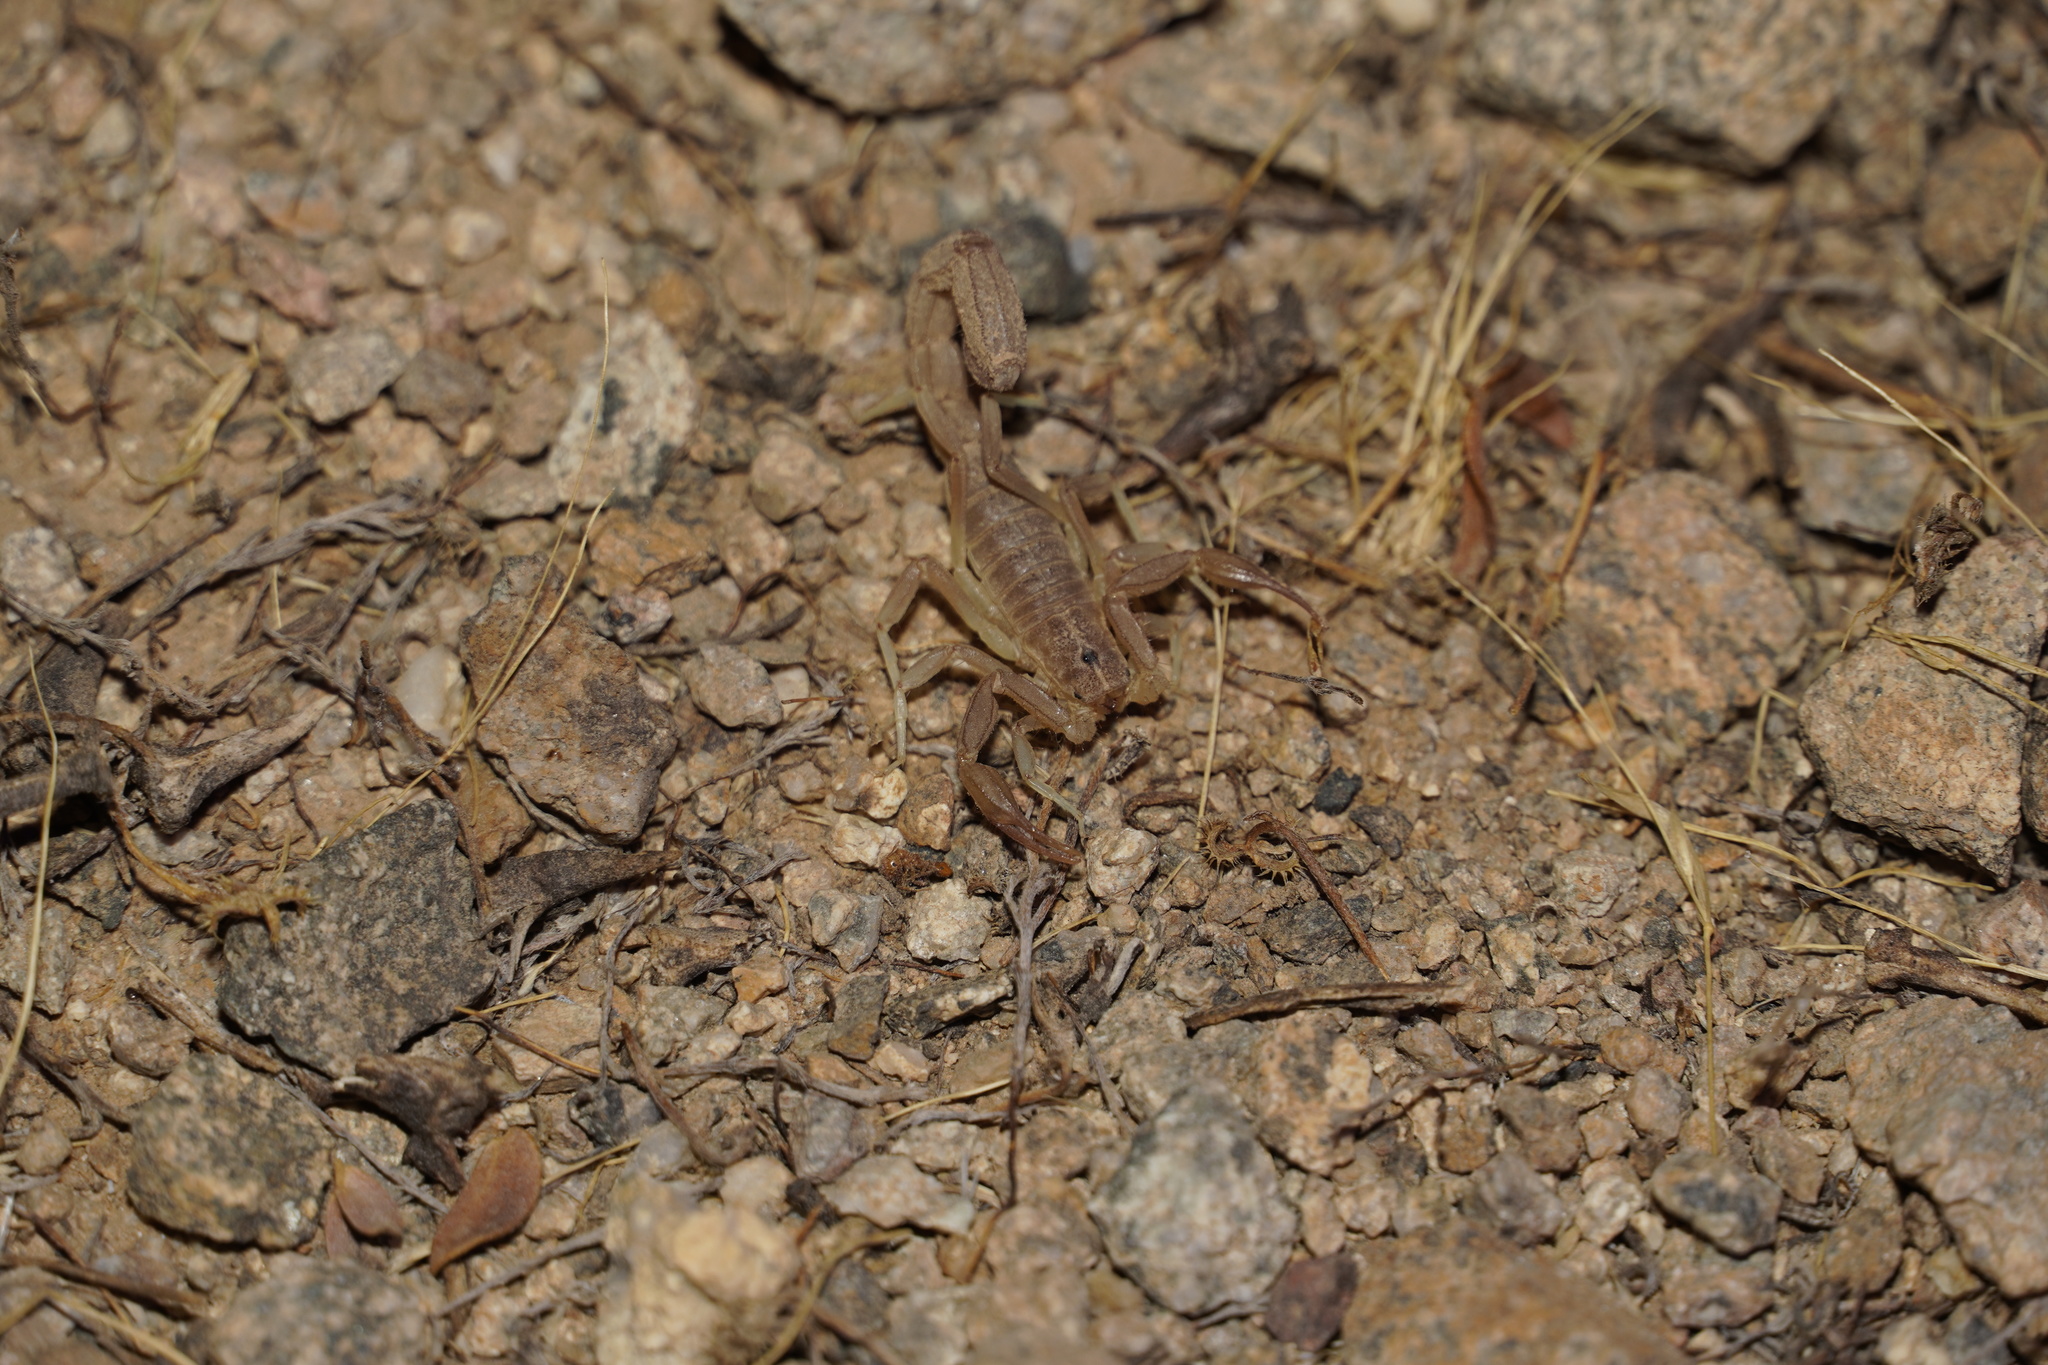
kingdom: Animalia
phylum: Arthropoda
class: Arachnida
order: Scorpiones
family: Vaejovidae
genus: Paravaejovis
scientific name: Paravaejovis spinigerus
